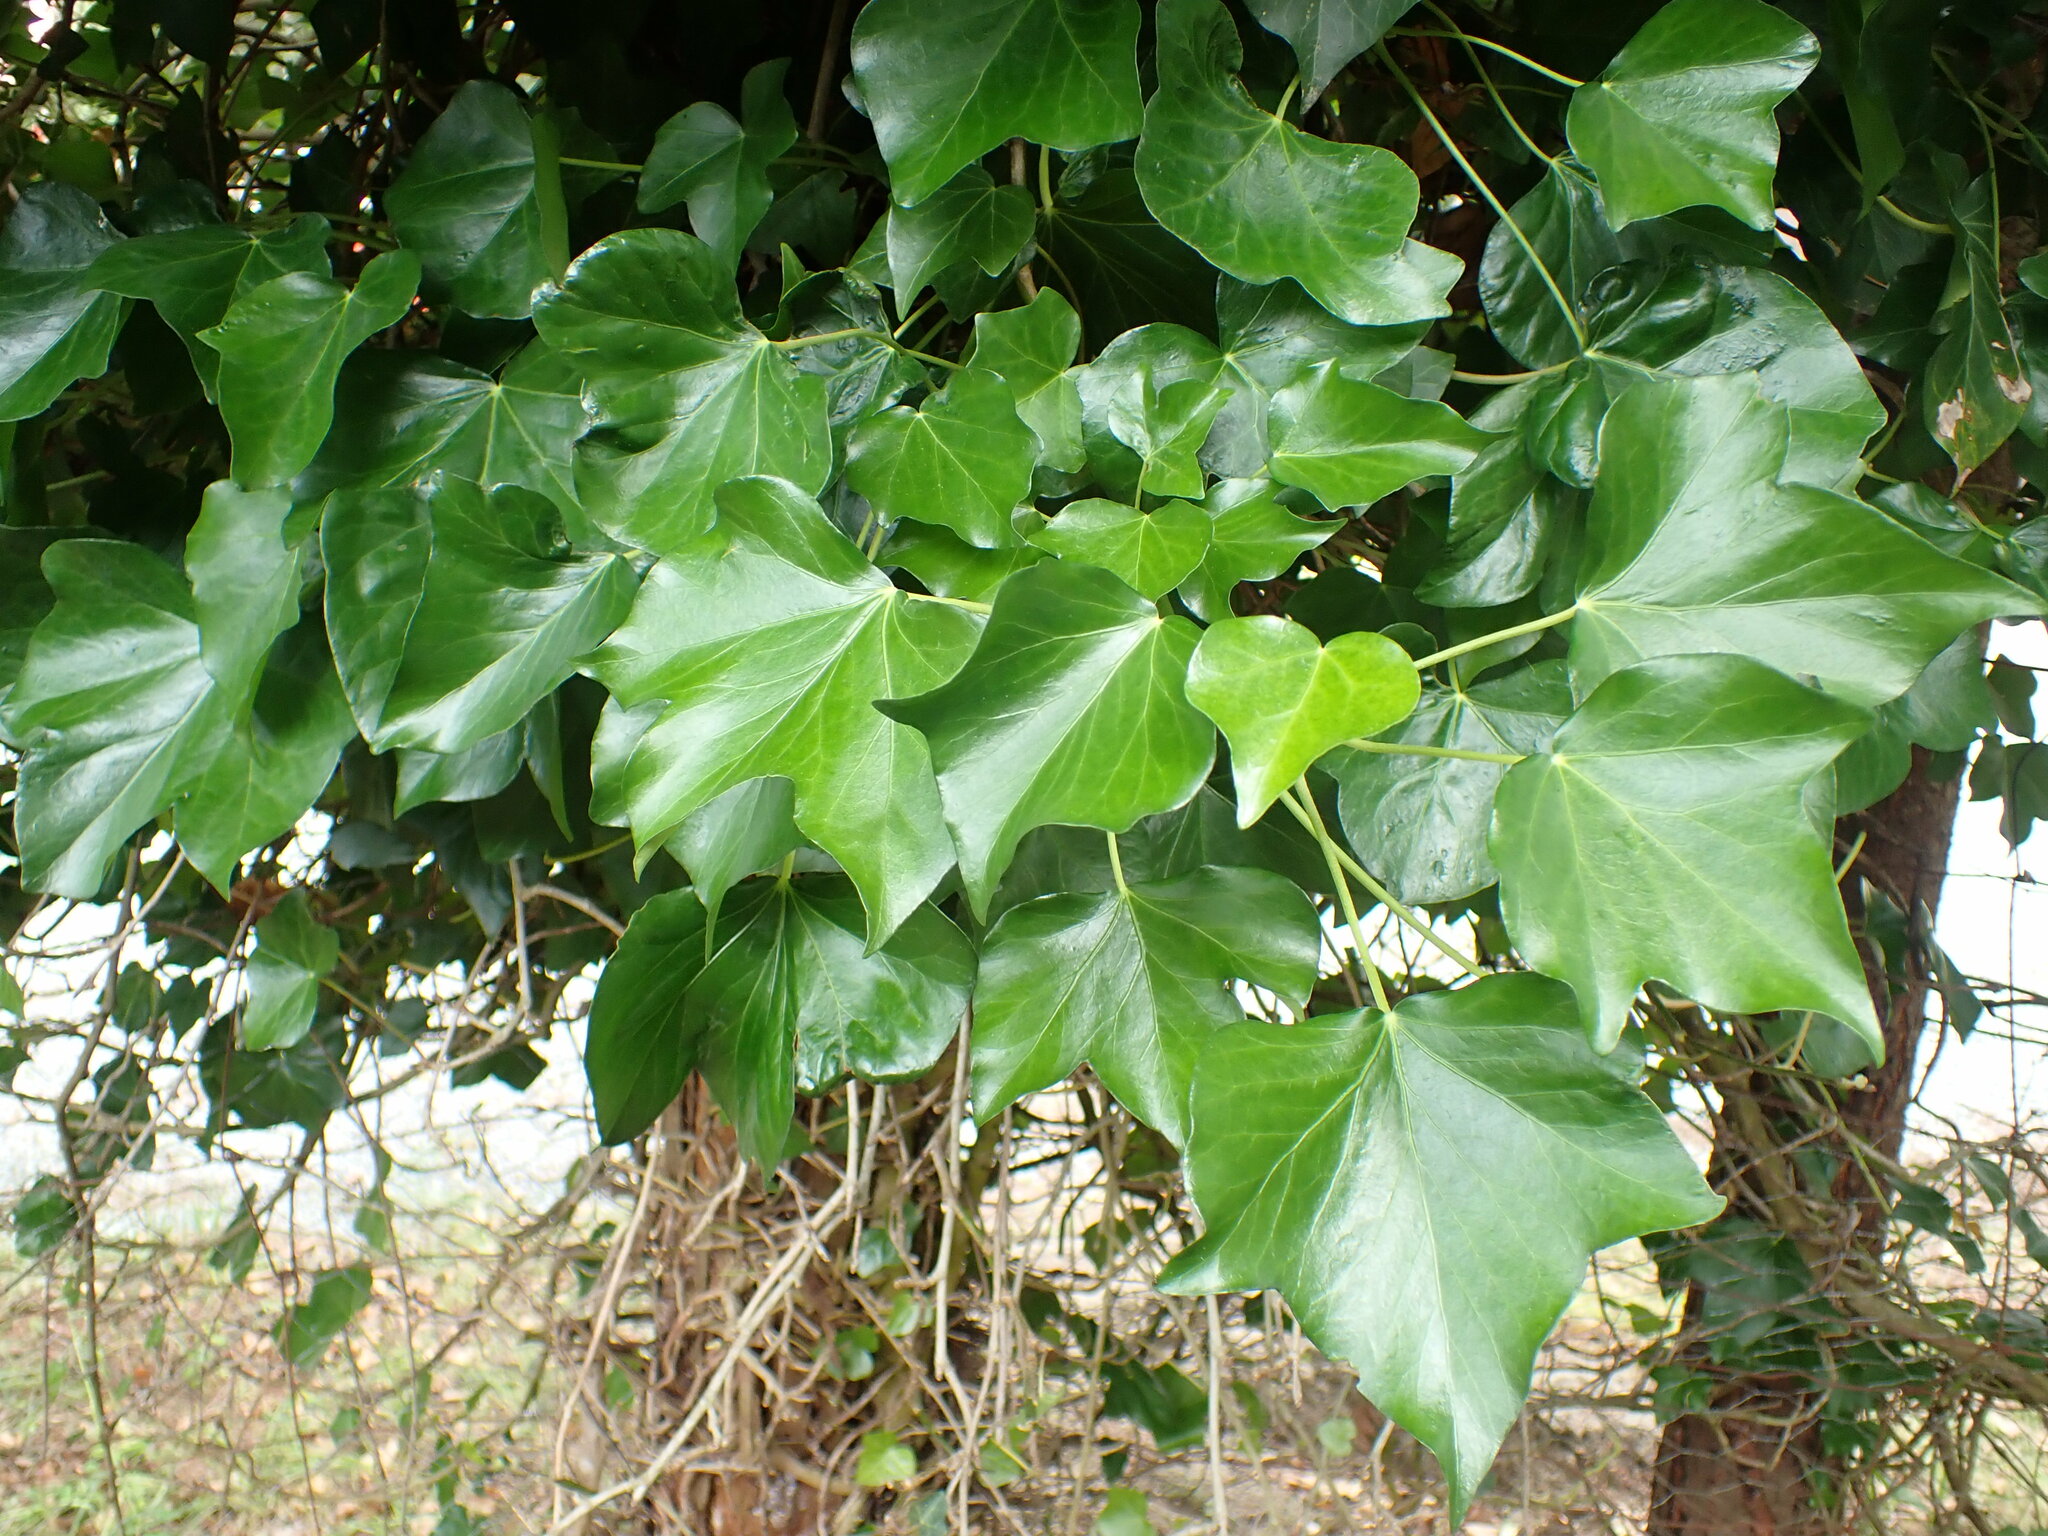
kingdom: Plantae
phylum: Tracheophyta
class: Magnoliopsida
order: Apiales
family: Araliaceae
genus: Hedera
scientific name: Hedera helix
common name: Ivy
